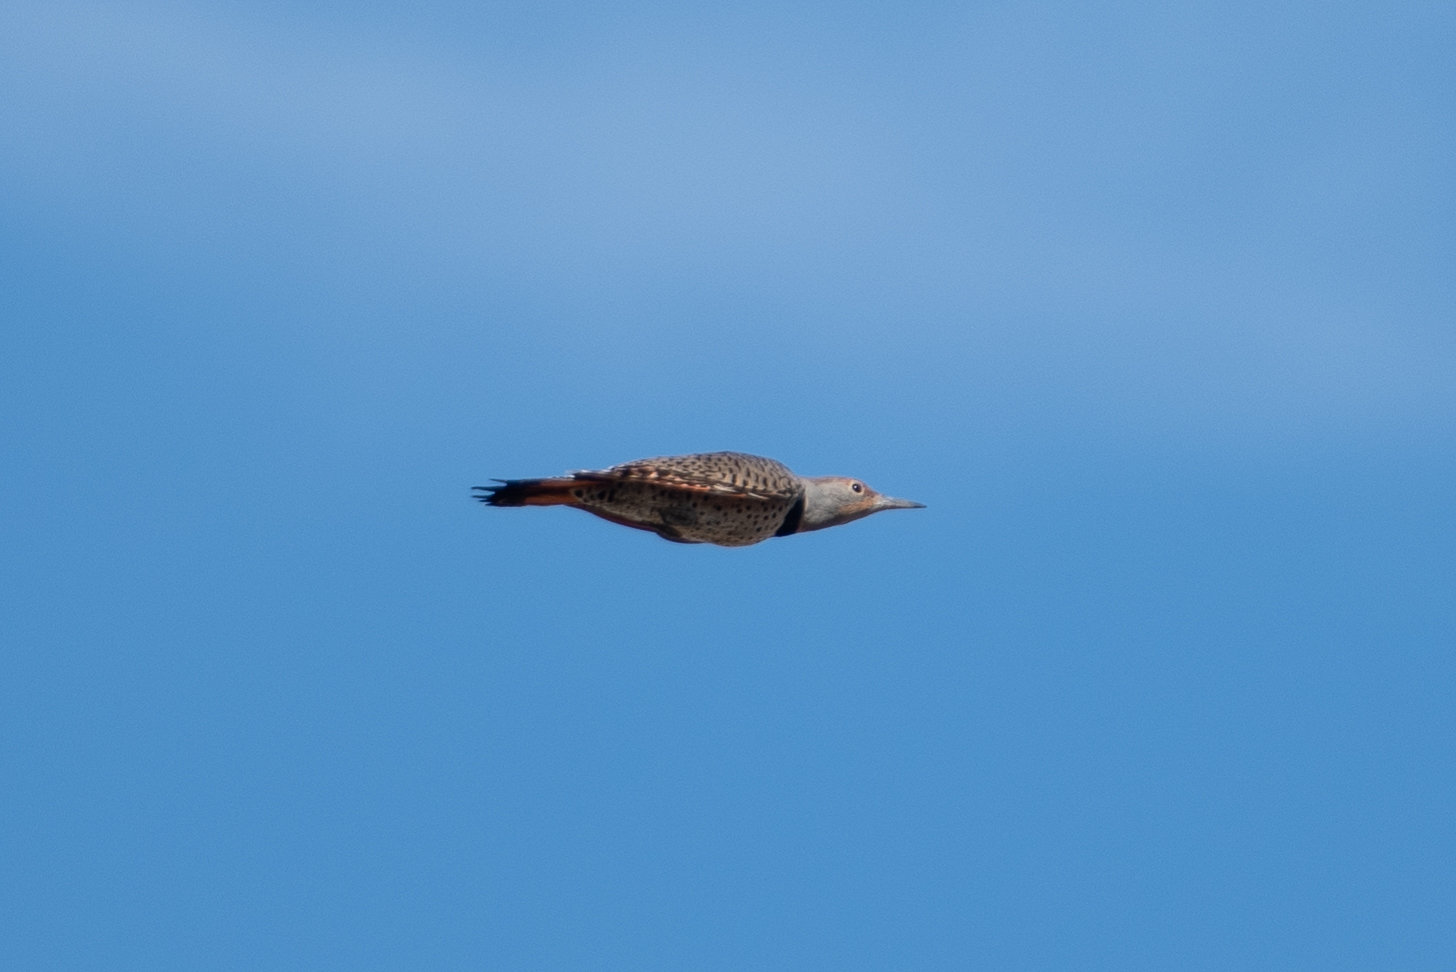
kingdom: Animalia
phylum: Chordata
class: Aves
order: Piciformes
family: Picidae
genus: Colaptes
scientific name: Colaptes auratus
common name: Northern flicker
